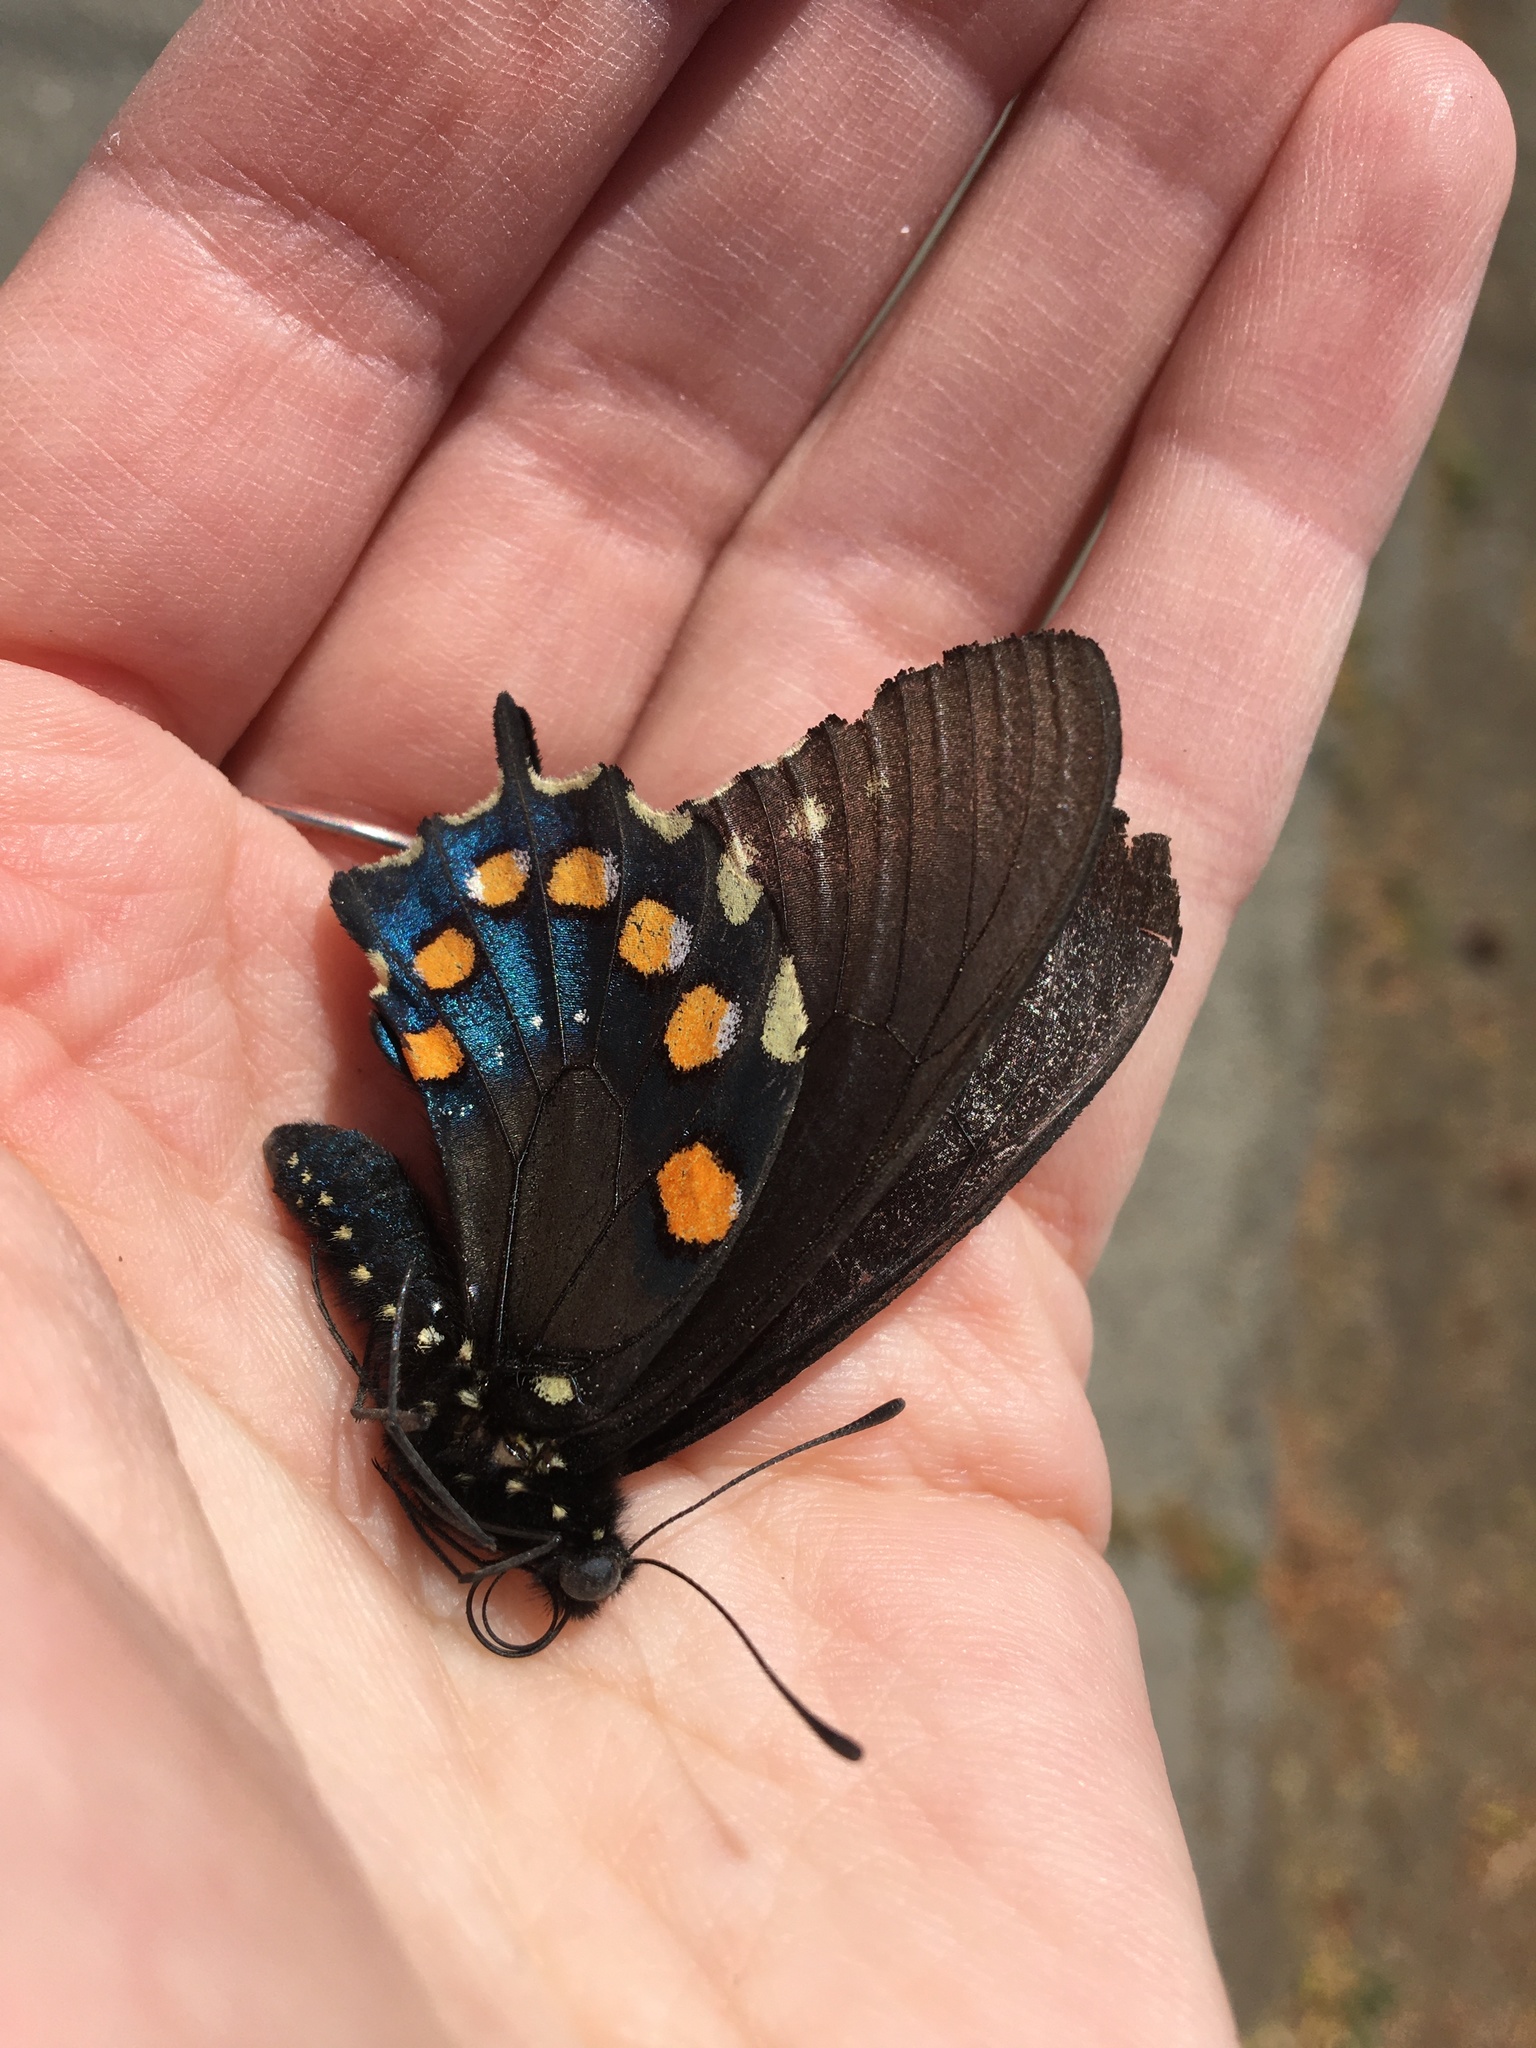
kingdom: Animalia
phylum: Arthropoda
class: Insecta
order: Lepidoptera
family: Papilionidae
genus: Battus
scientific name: Battus philenor
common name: Pipevine swallowtail
